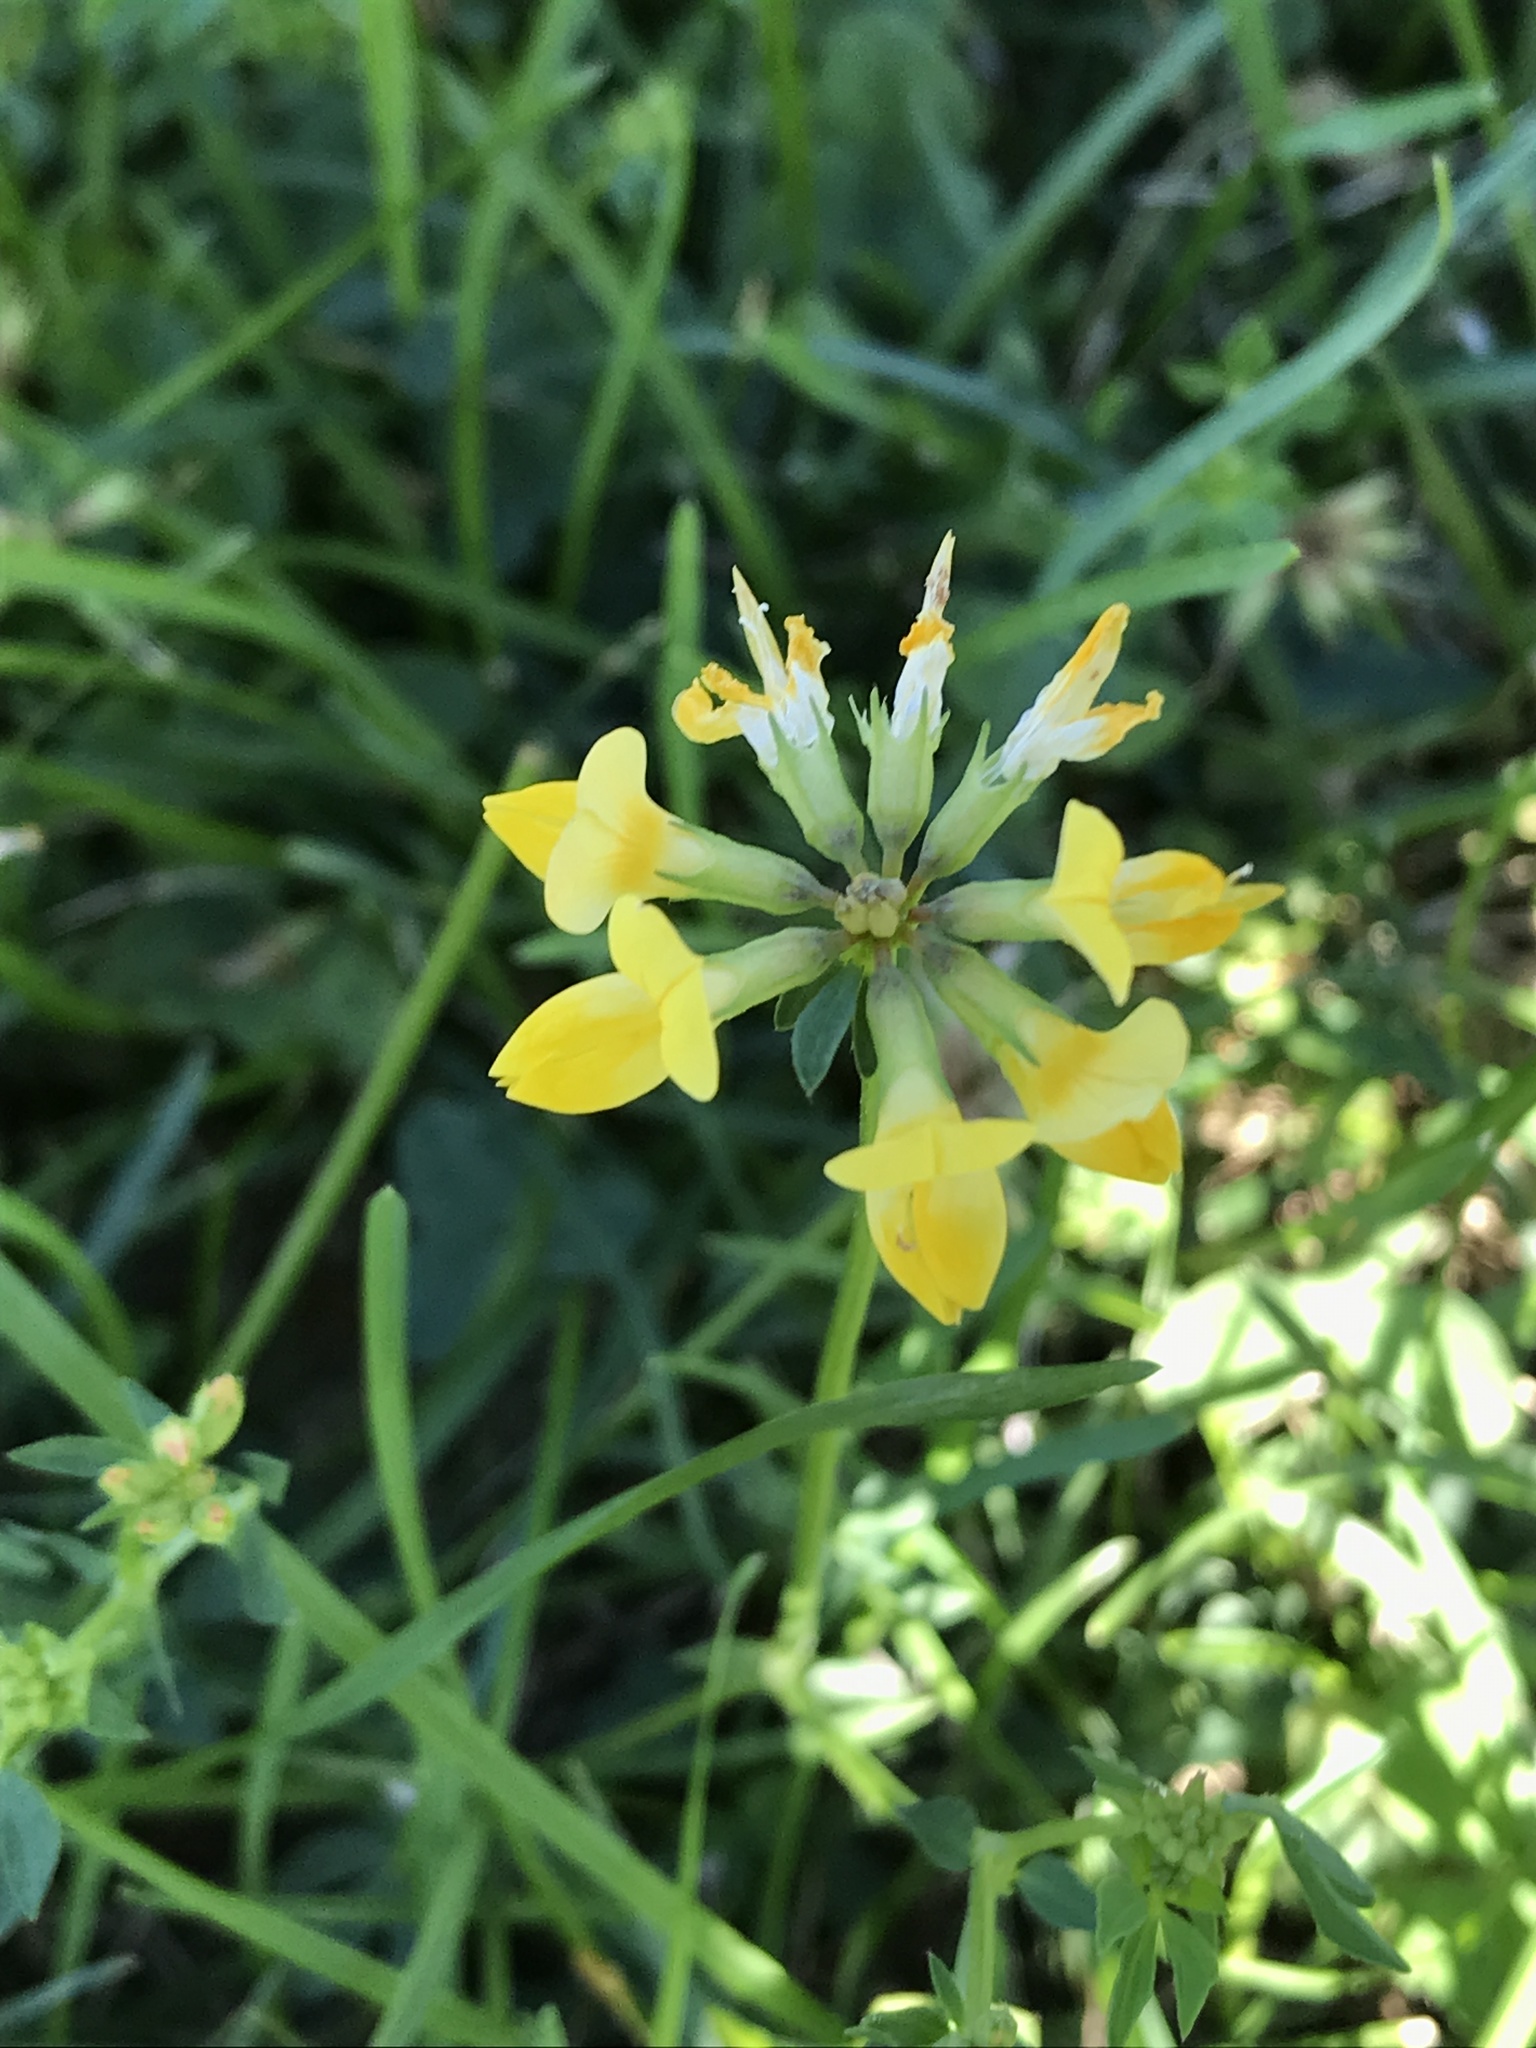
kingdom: Plantae
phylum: Tracheophyta
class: Magnoliopsida
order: Fabales
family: Fabaceae
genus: Lotus
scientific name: Lotus corniculatus
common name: Common bird's-foot-trefoil
